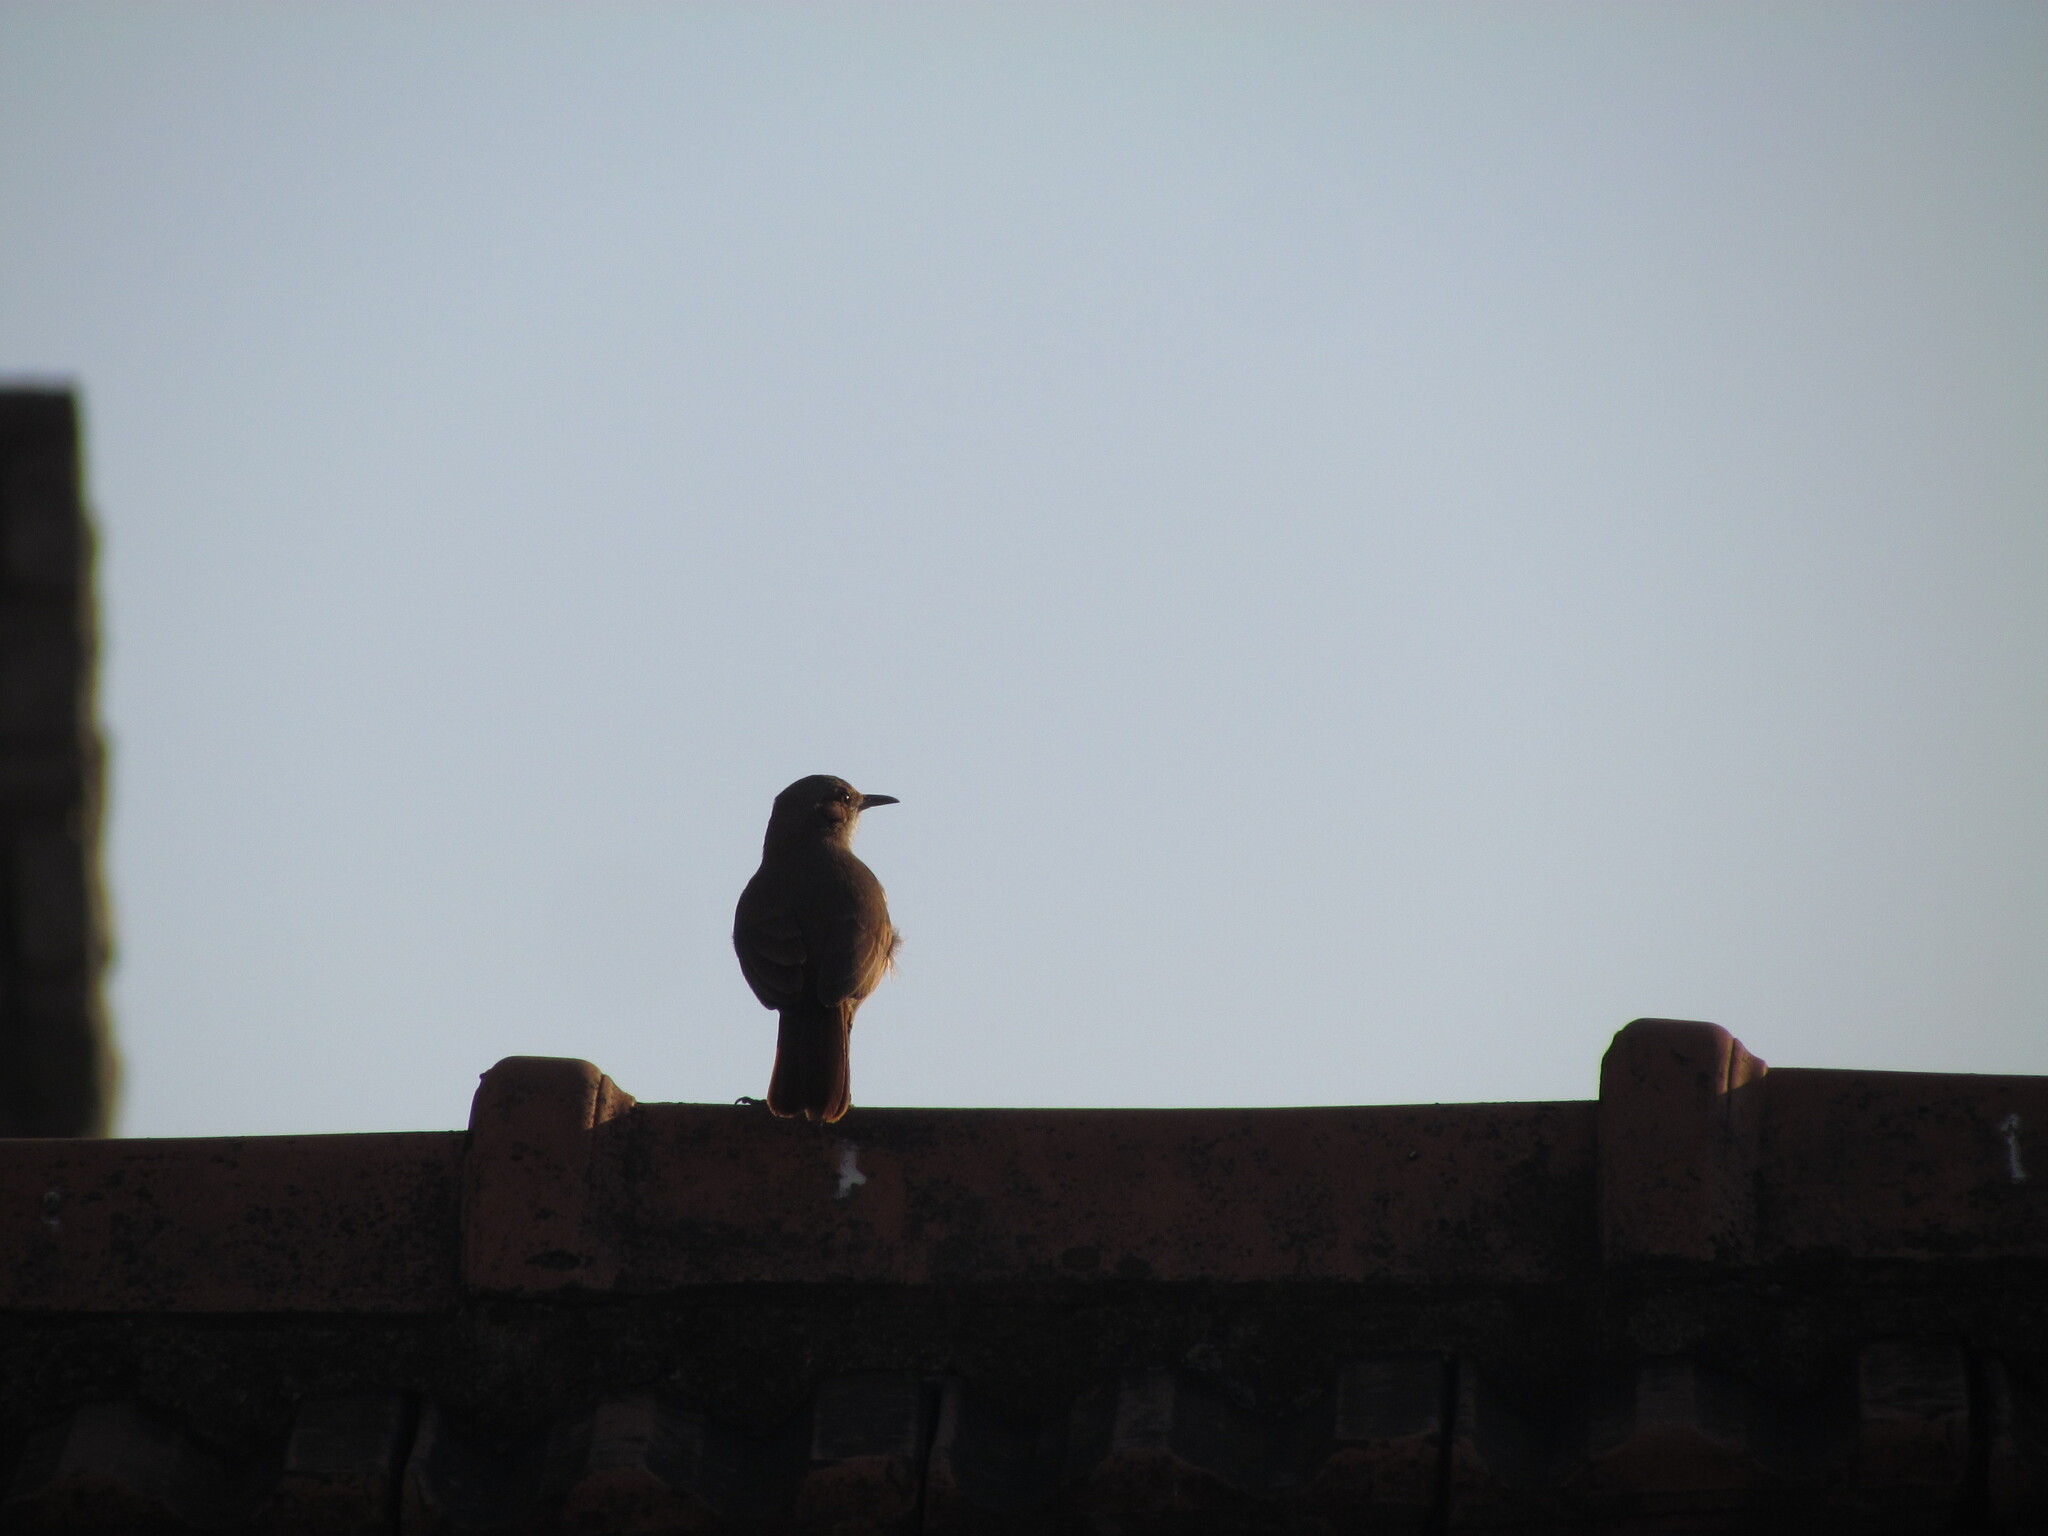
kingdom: Animalia
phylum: Chordata
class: Aves
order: Passeriformes
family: Furnariidae
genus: Furnarius
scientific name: Furnarius rufus
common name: Rufous hornero
